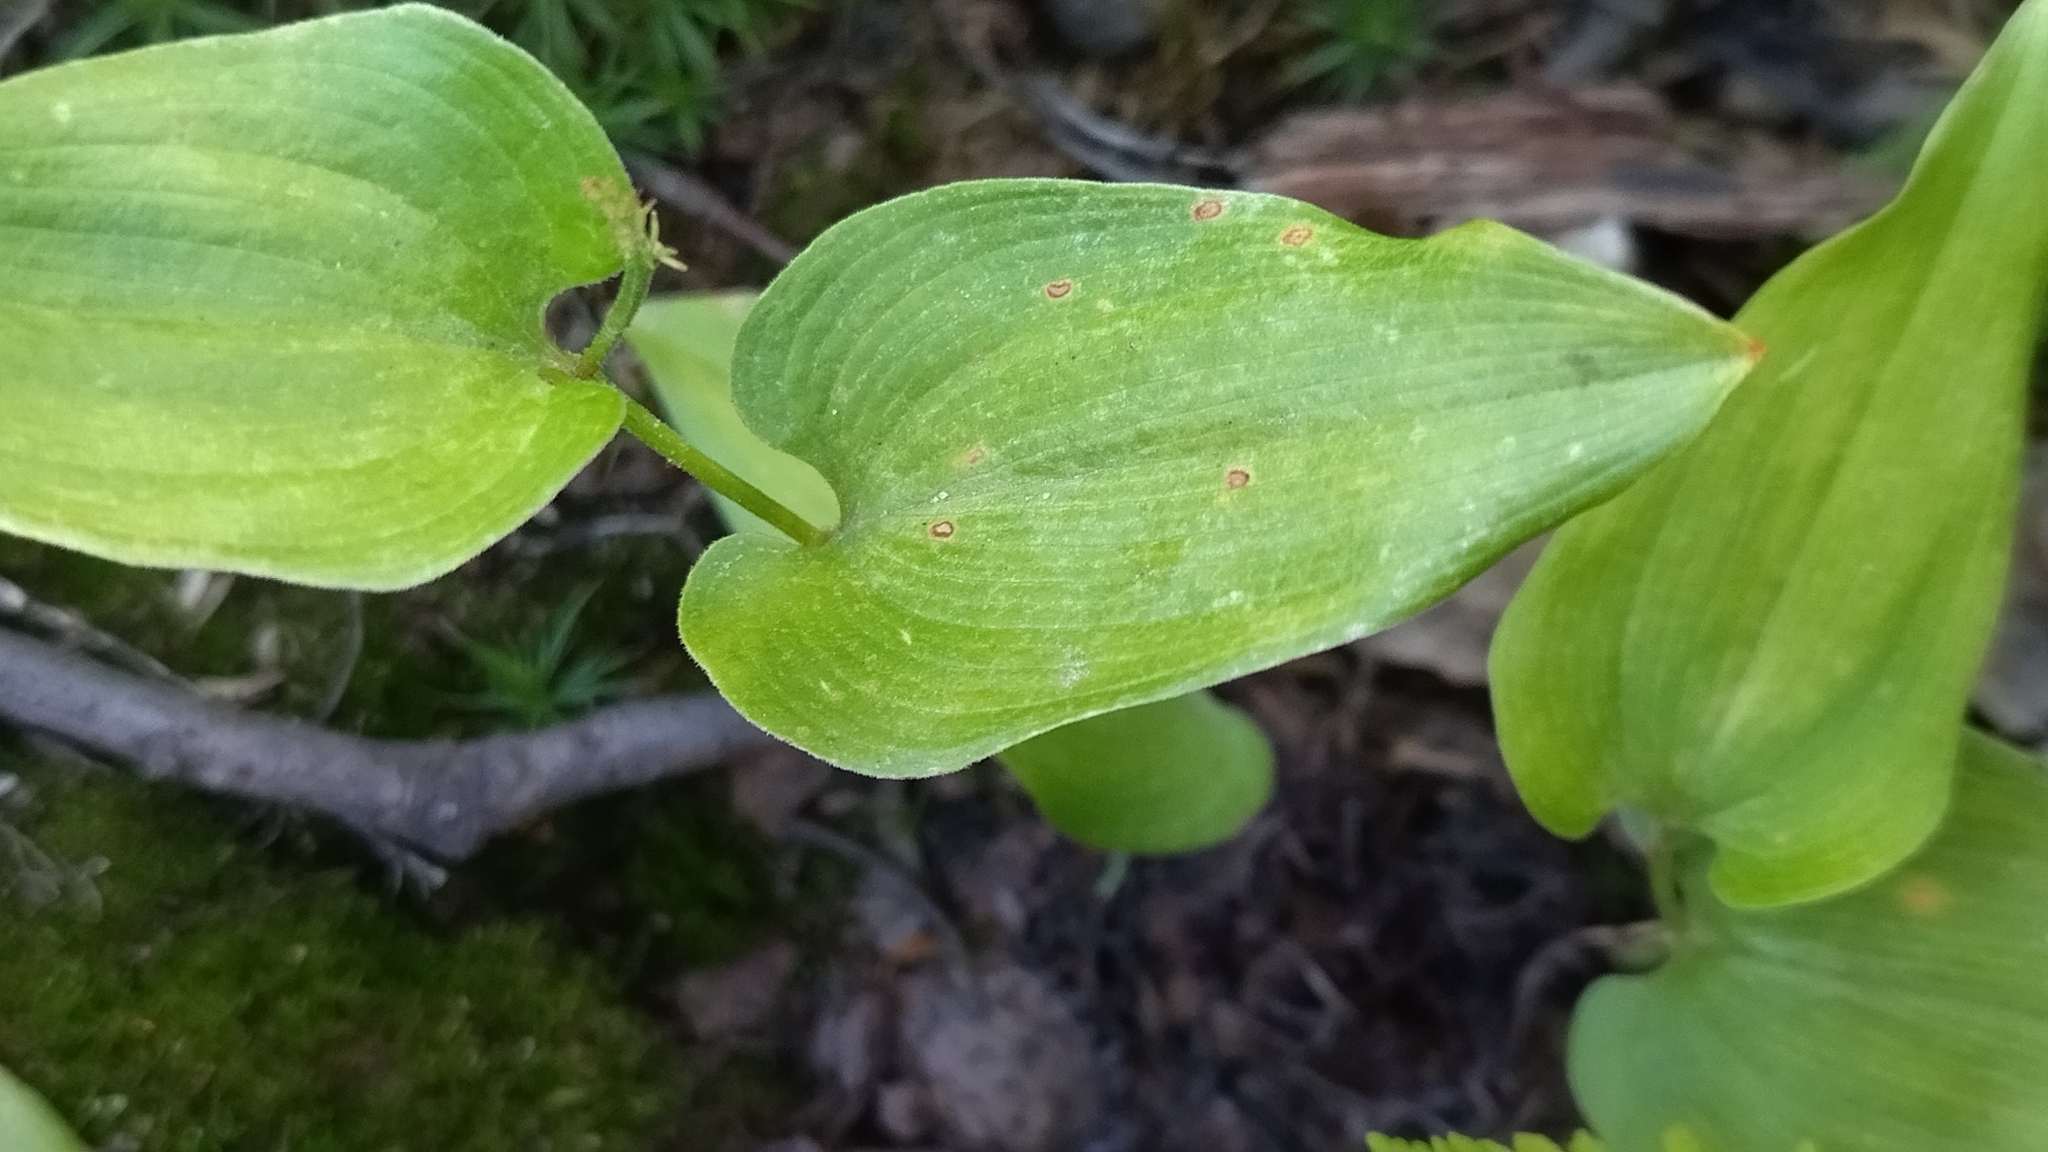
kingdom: Plantae
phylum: Tracheophyta
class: Liliopsida
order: Asparagales
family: Asparagaceae
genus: Maianthemum
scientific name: Maianthemum bifolium
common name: May lily
